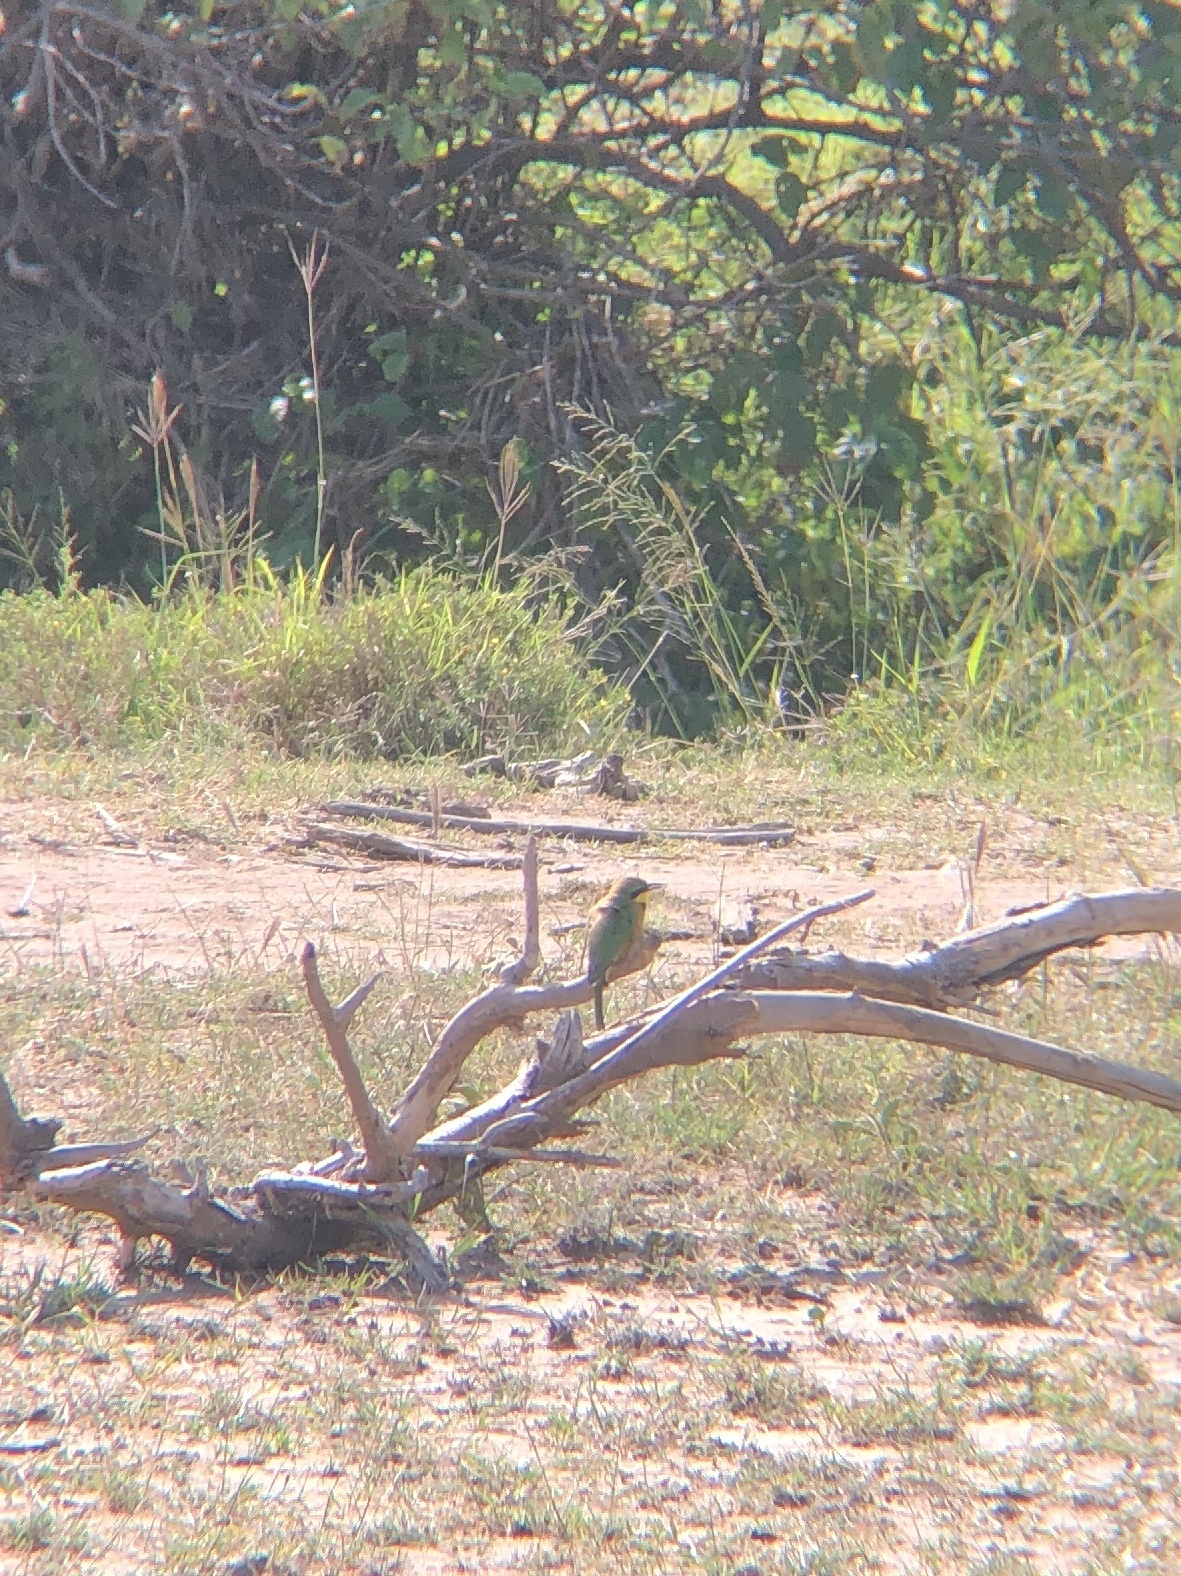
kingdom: Animalia
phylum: Chordata
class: Aves
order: Coraciiformes
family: Meropidae
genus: Merops
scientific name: Merops pusillus
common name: Little bee-eater
